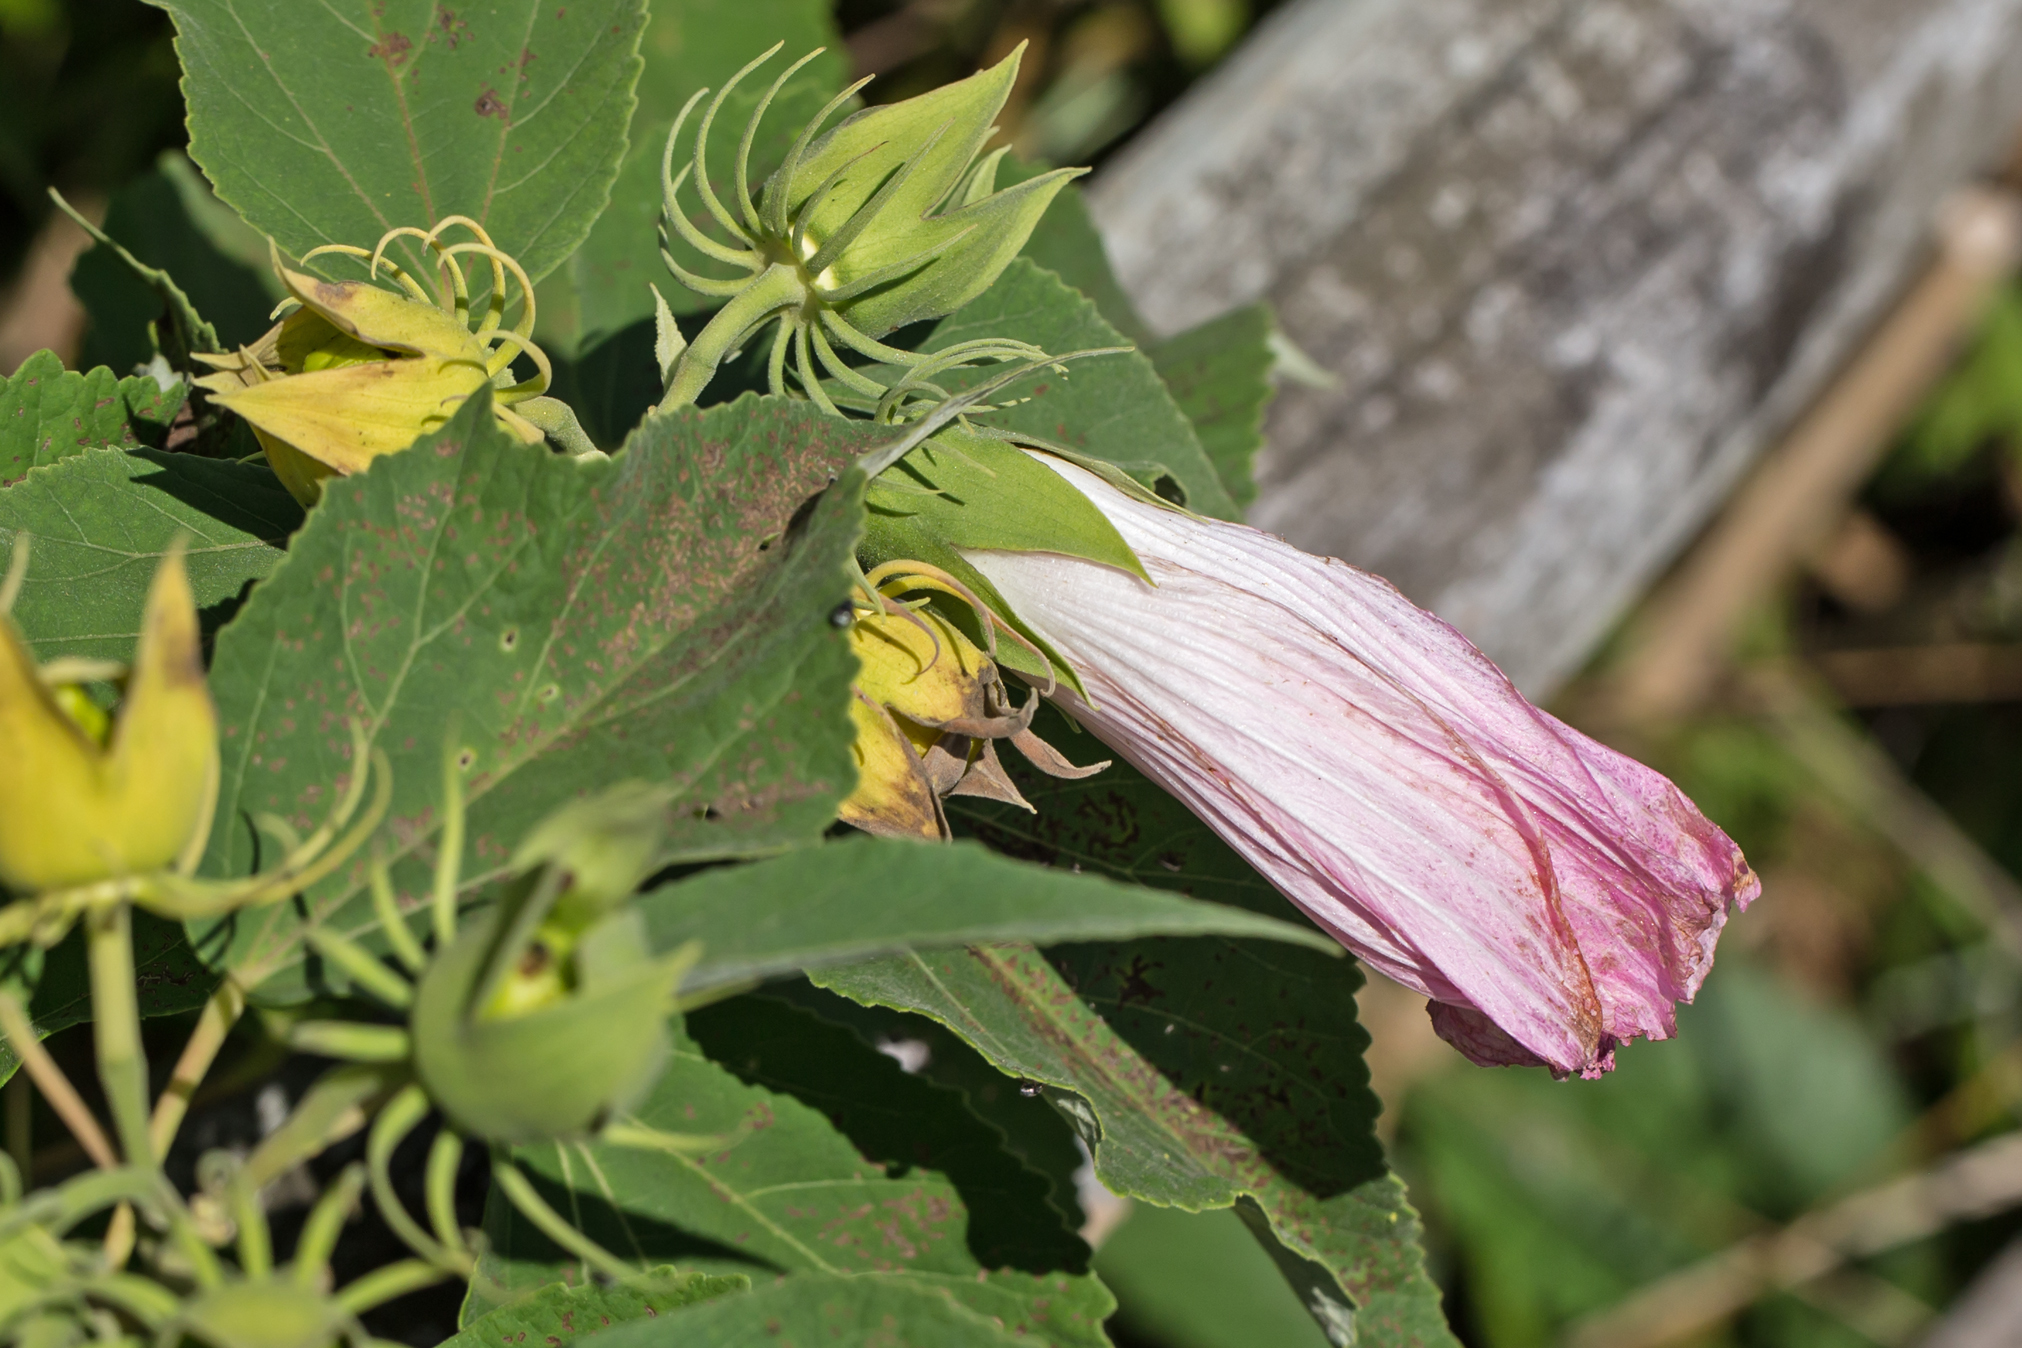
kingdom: Plantae
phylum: Tracheophyta
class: Magnoliopsida
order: Malvales
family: Malvaceae
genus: Hibiscus
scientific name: Hibiscus moscheutos
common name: Common rose-mallow
